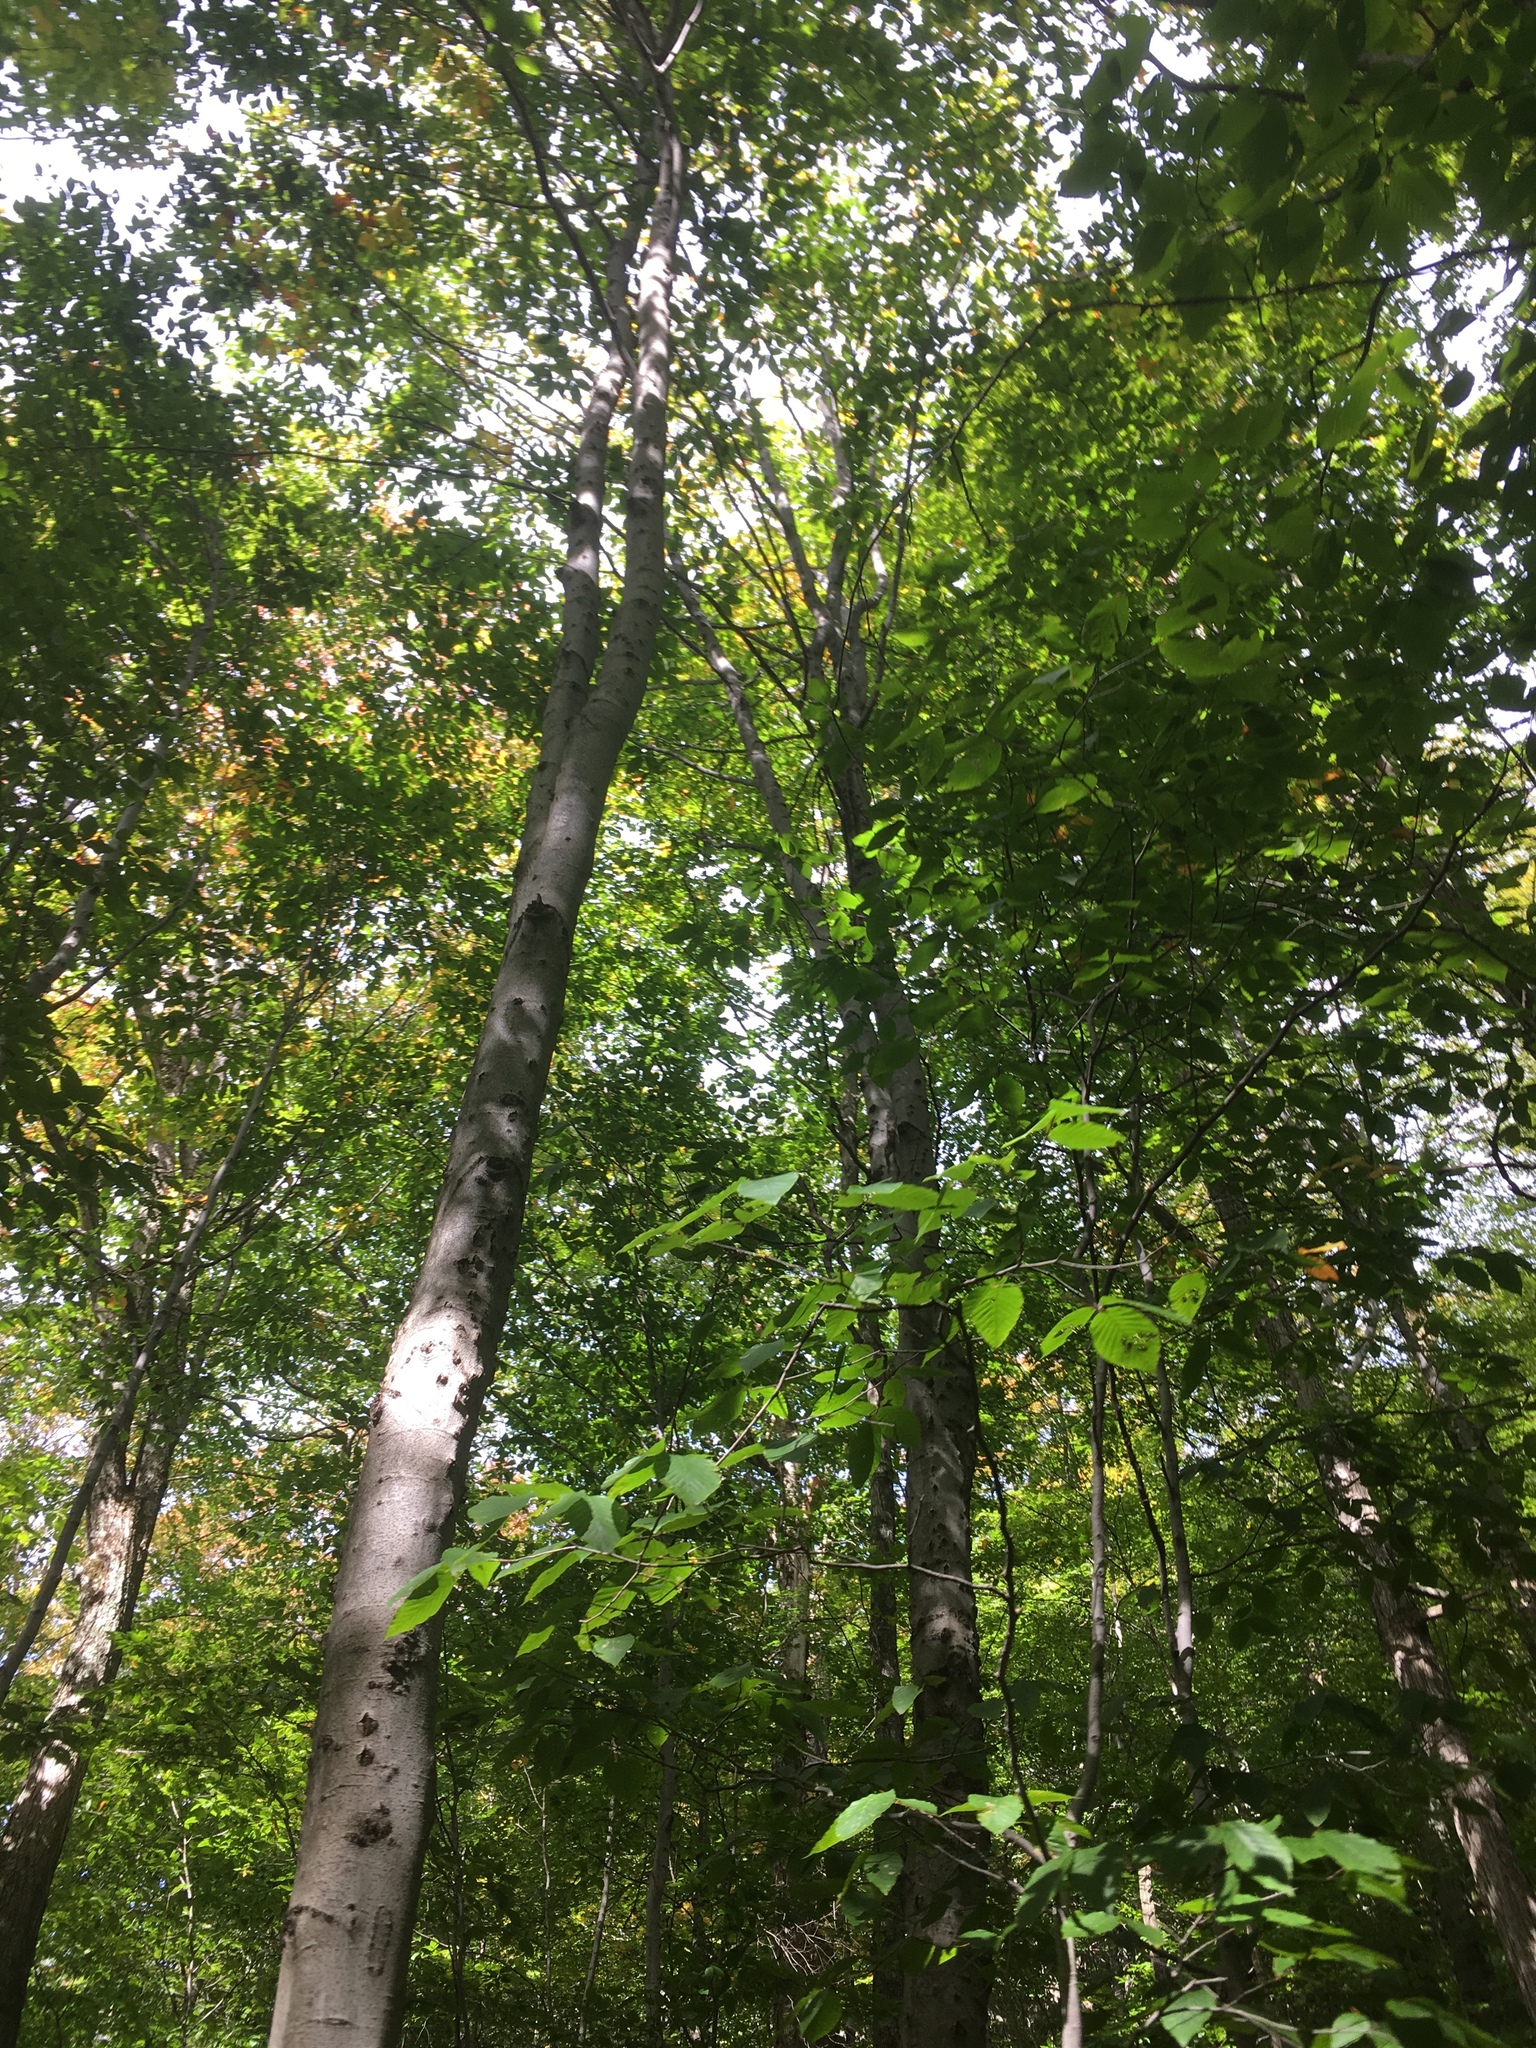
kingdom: Plantae
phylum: Tracheophyta
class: Magnoliopsida
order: Fagales
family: Fagaceae
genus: Fagus
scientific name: Fagus grandifolia
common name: American beech
